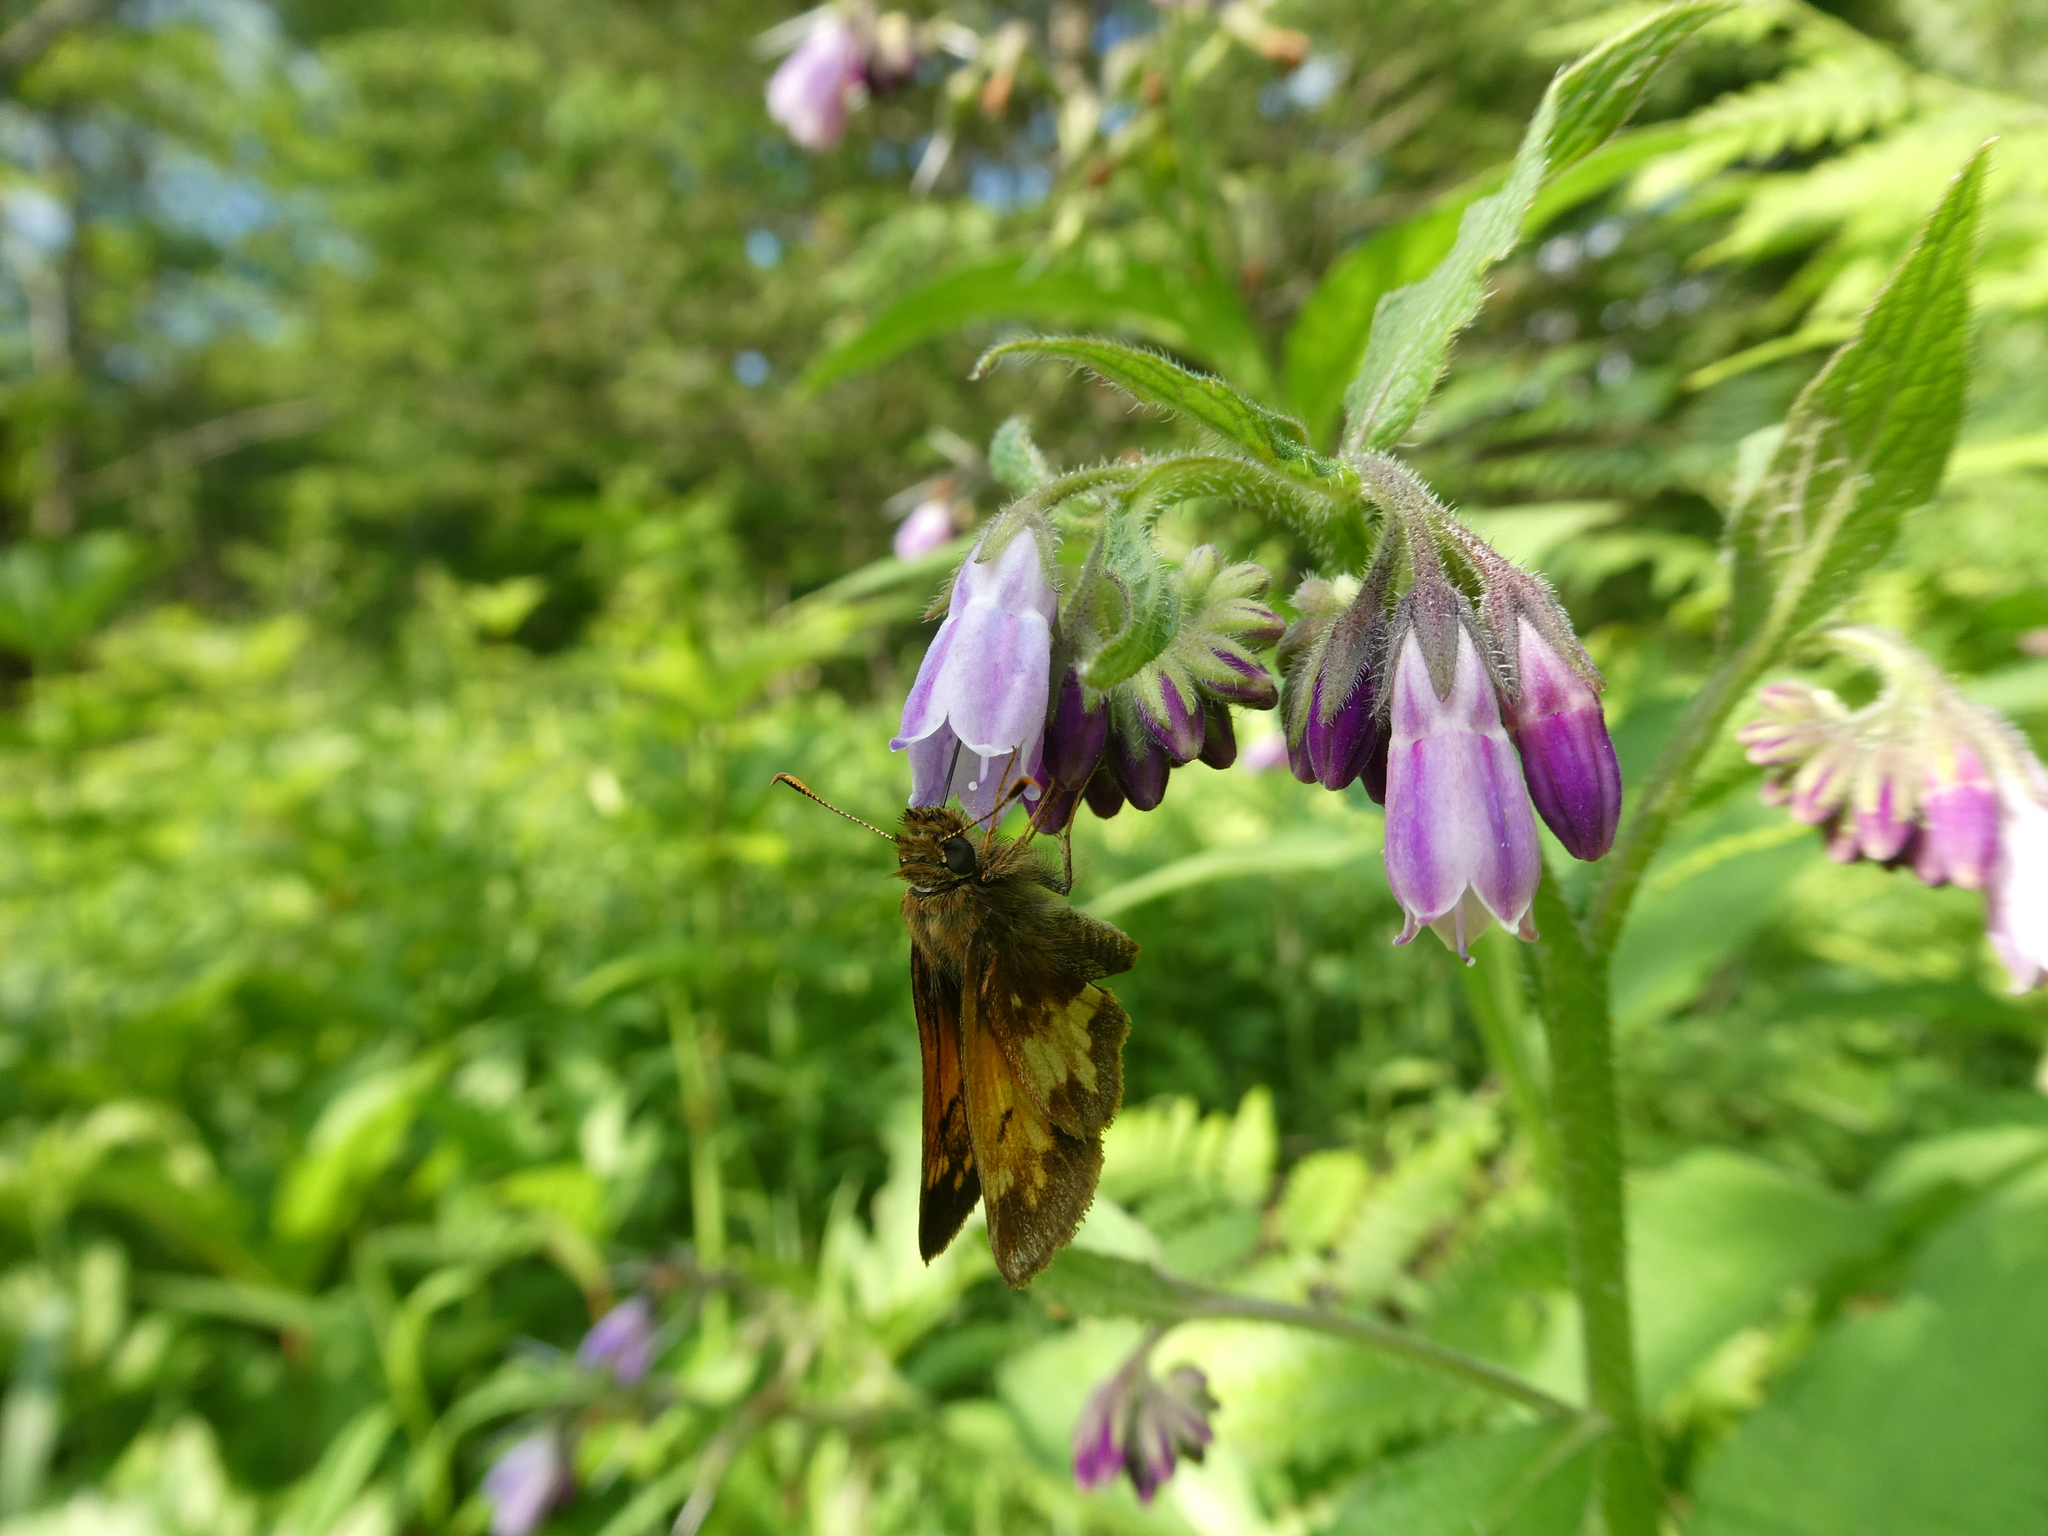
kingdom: Animalia
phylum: Arthropoda
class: Insecta
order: Lepidoptera
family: Hesperiidae
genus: Lon
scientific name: Lon hobomok
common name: Hobomok skipper
